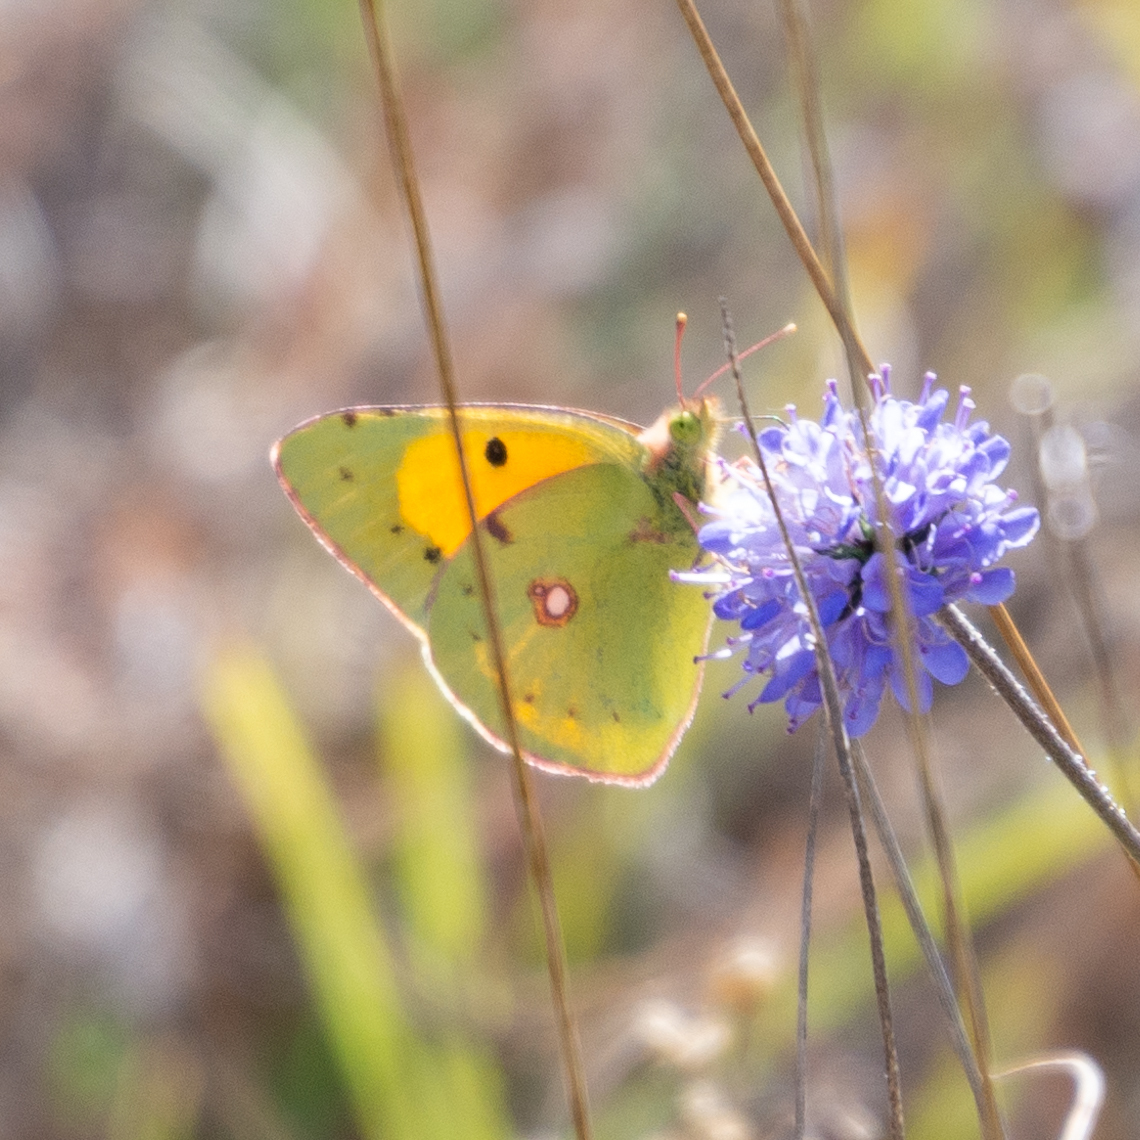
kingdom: Animalia
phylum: Arthropoda
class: Insecta
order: Lepidoptera
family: Pieridae
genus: Colias
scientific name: Colias croceus
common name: Clouded yellow
